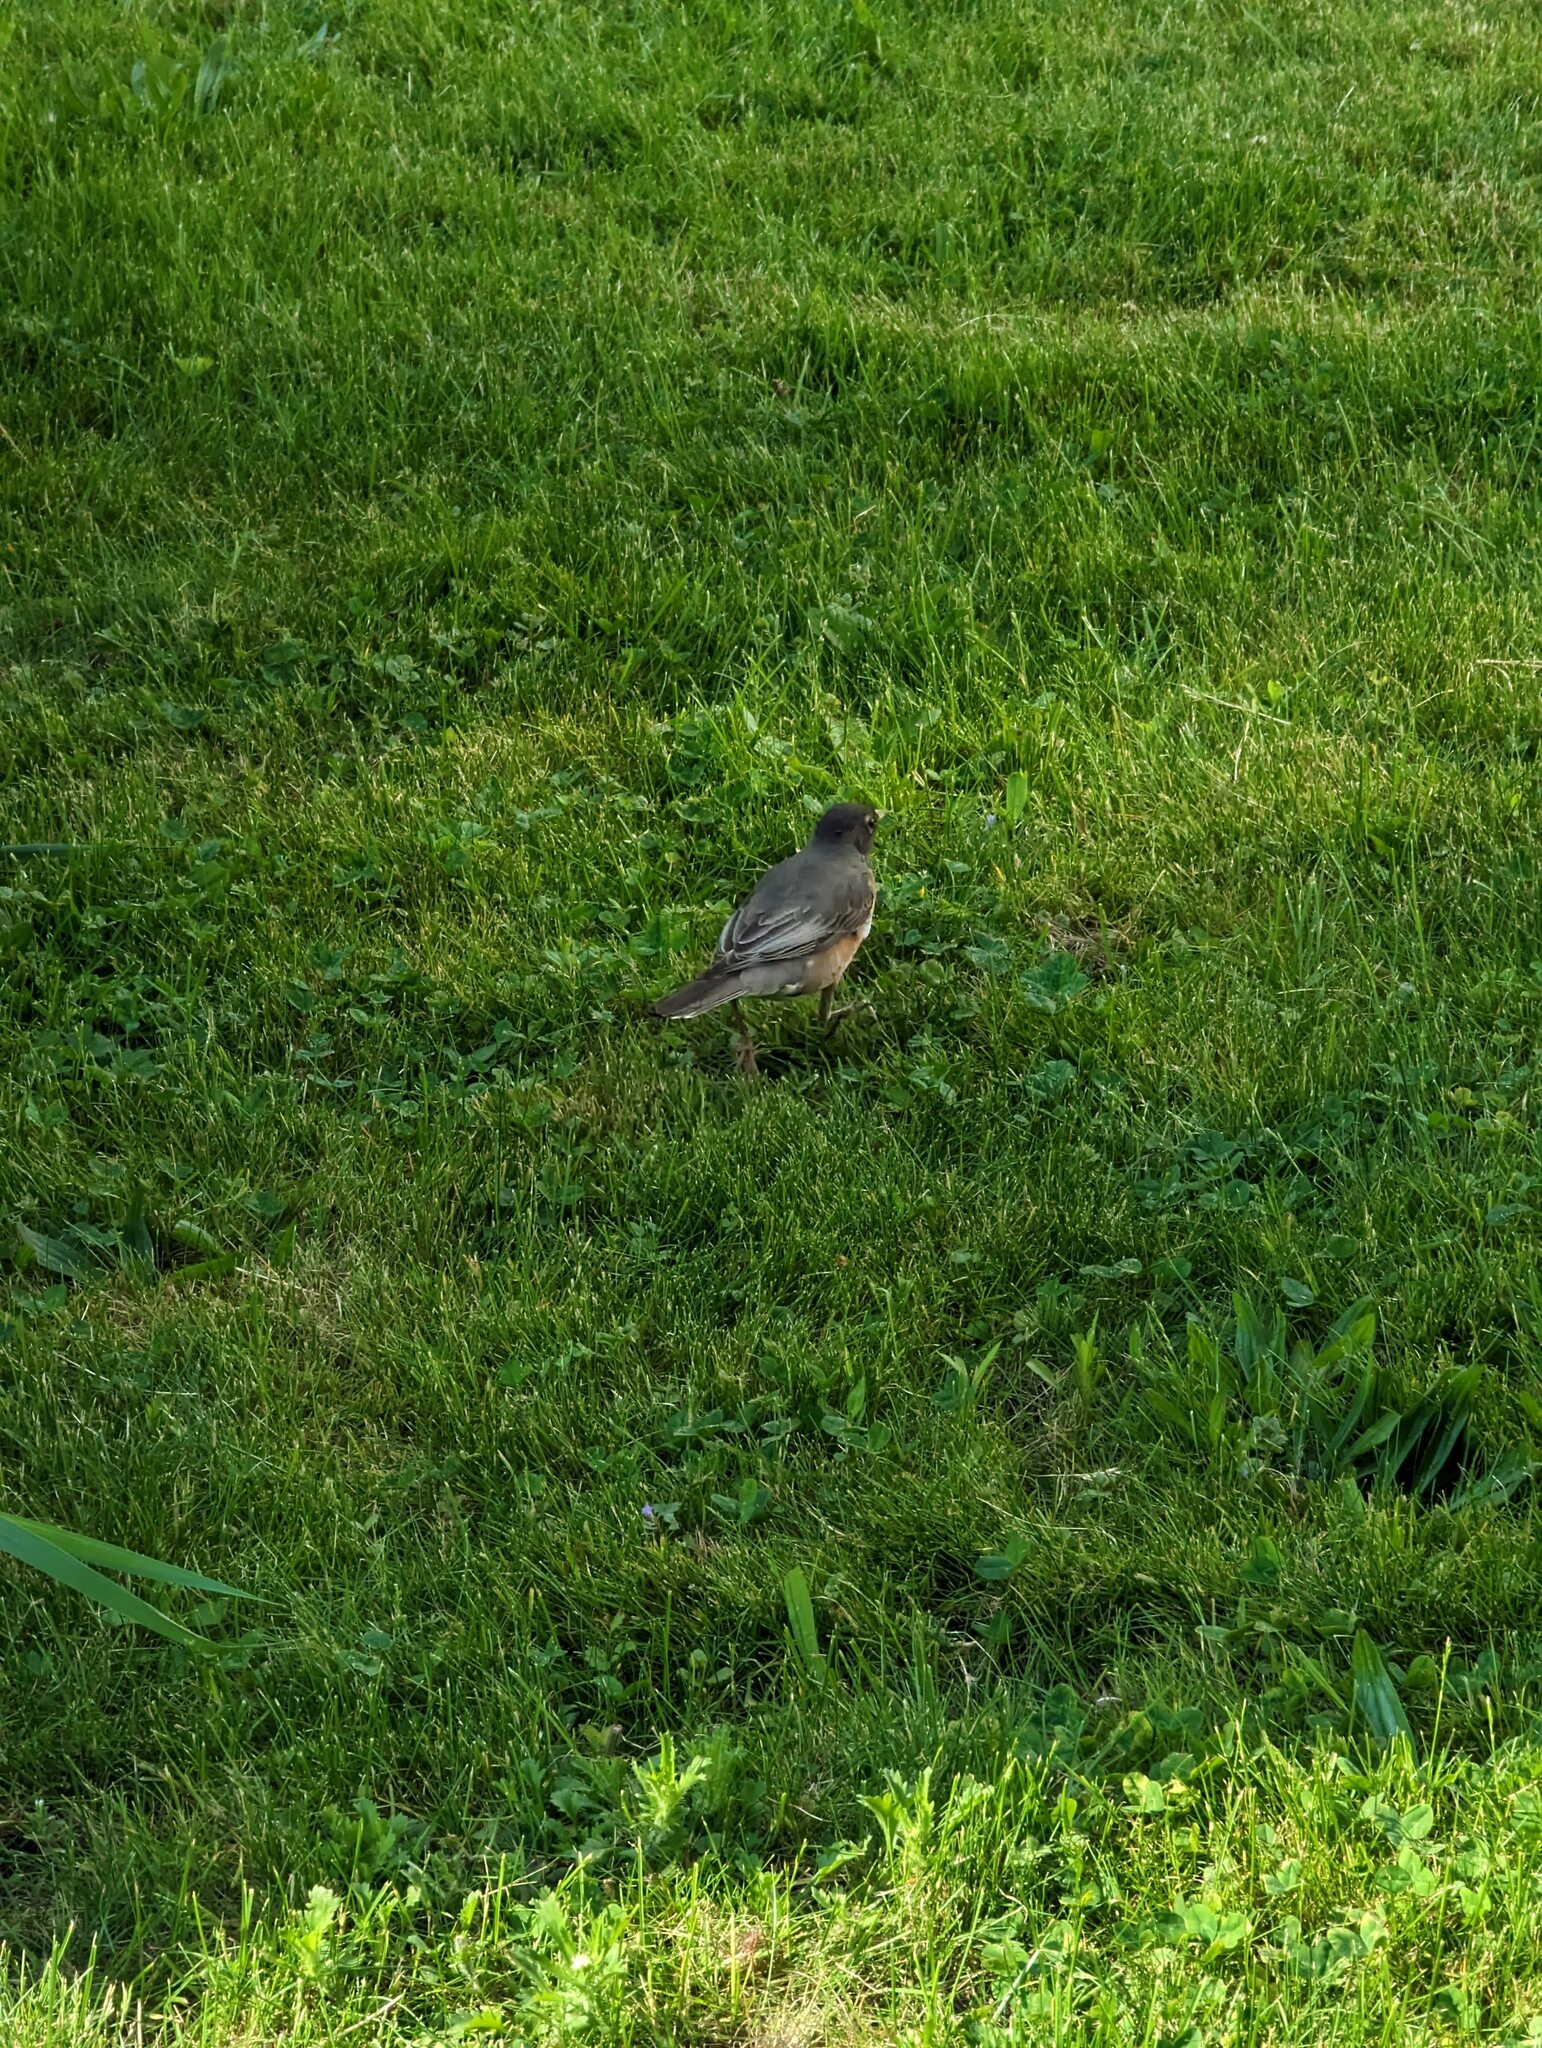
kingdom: Animalia
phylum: Chordata
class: Aves
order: Passeriformes
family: Turdidae
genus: Turdus
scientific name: Turdus migratorius
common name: American robin
